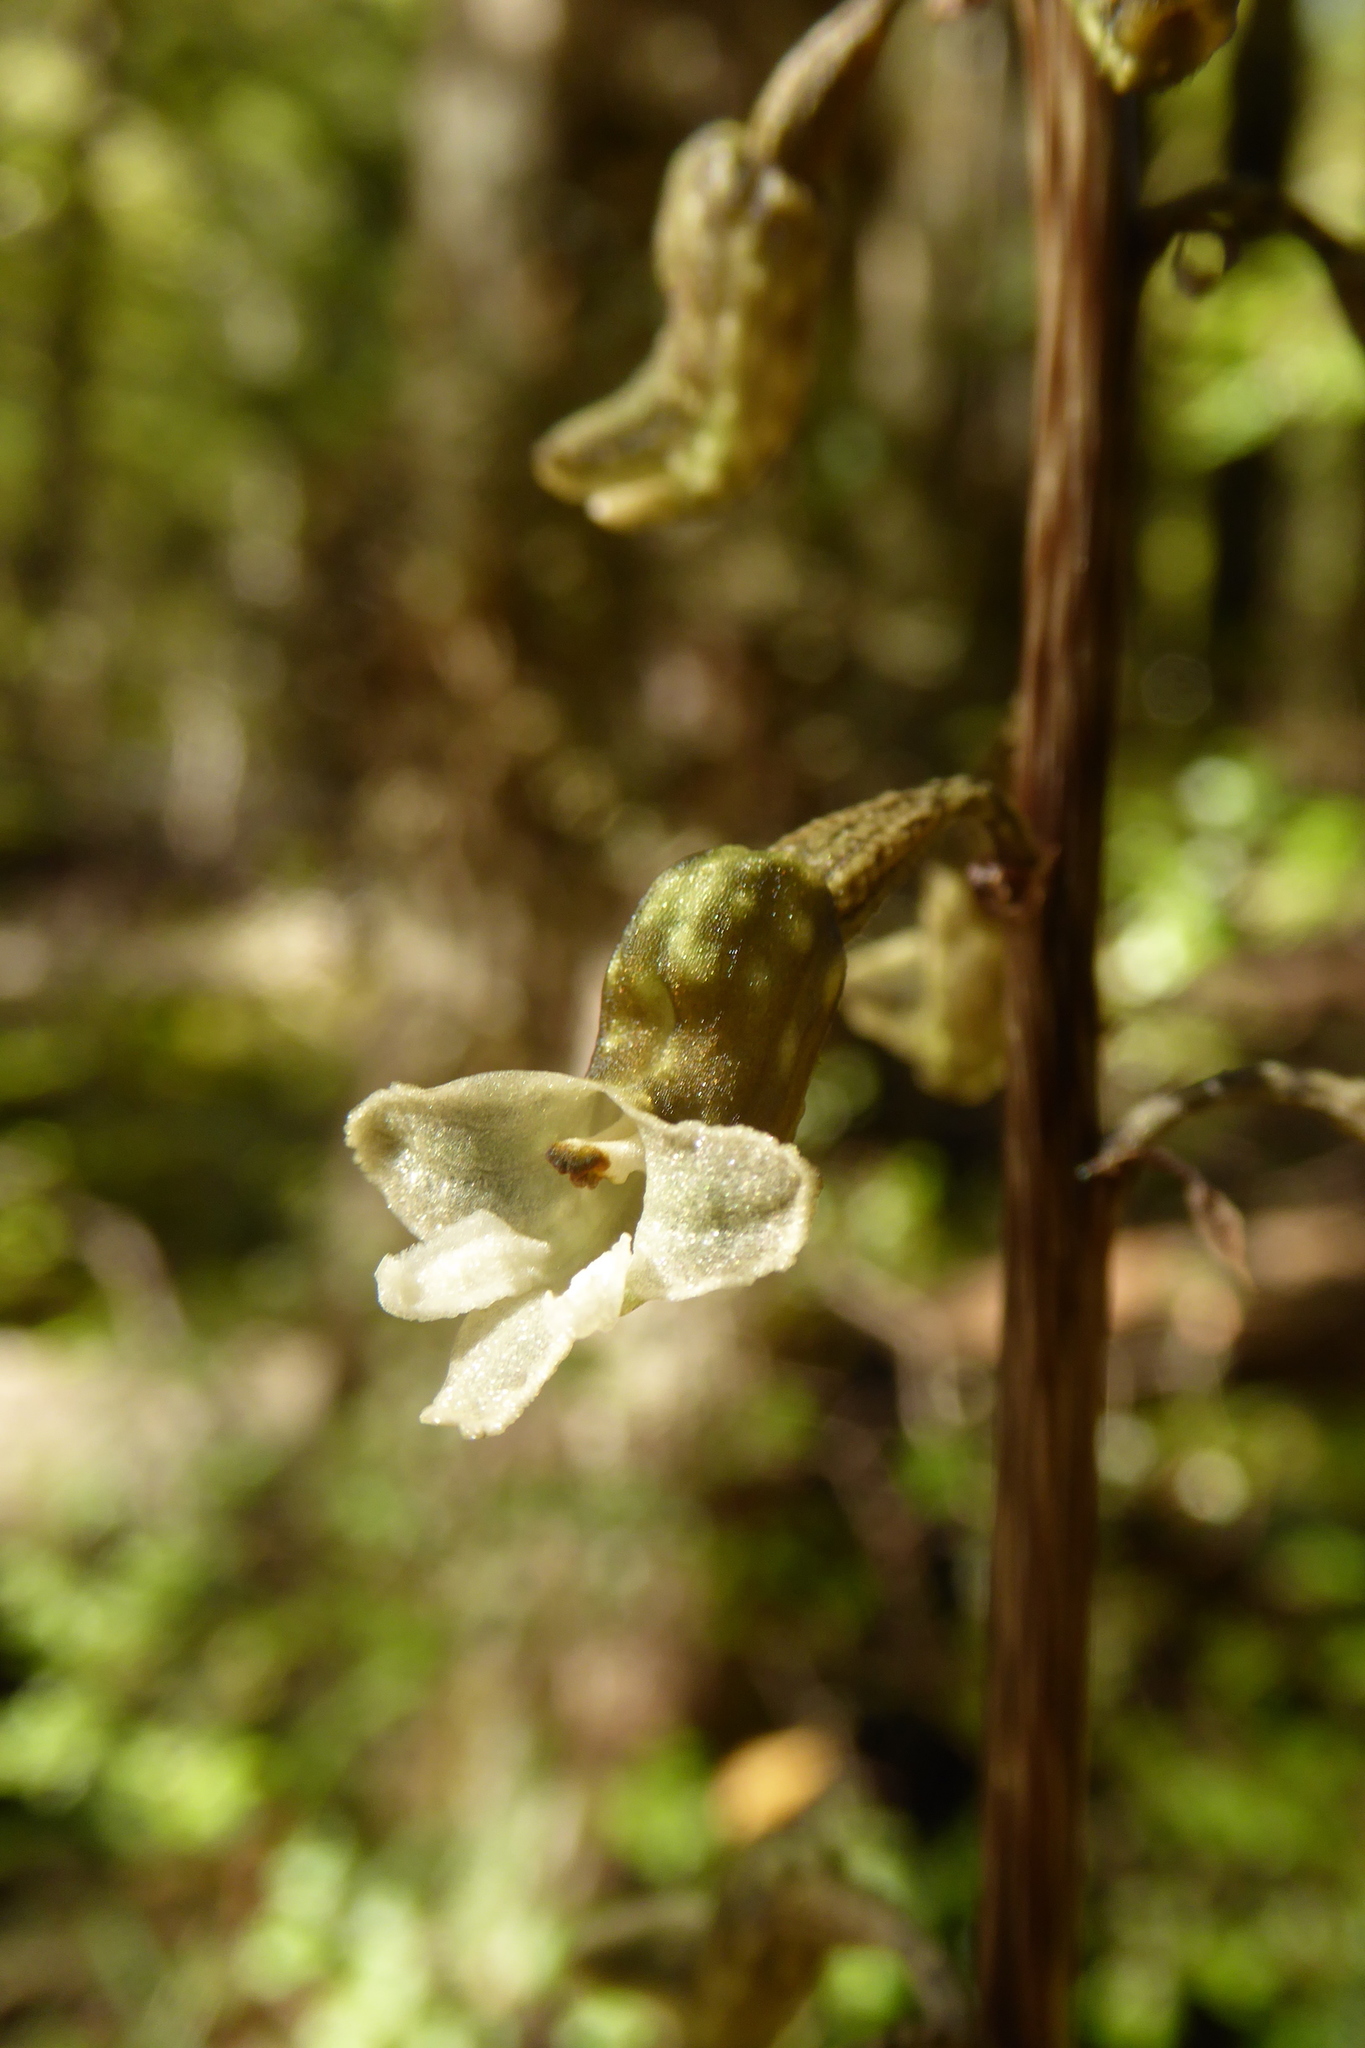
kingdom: Plantae
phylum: Tracheophyta
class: Liliopsida
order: Asparagales
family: Orchidaceae
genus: Gastrodia
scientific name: Gastrodia cunninghamii
